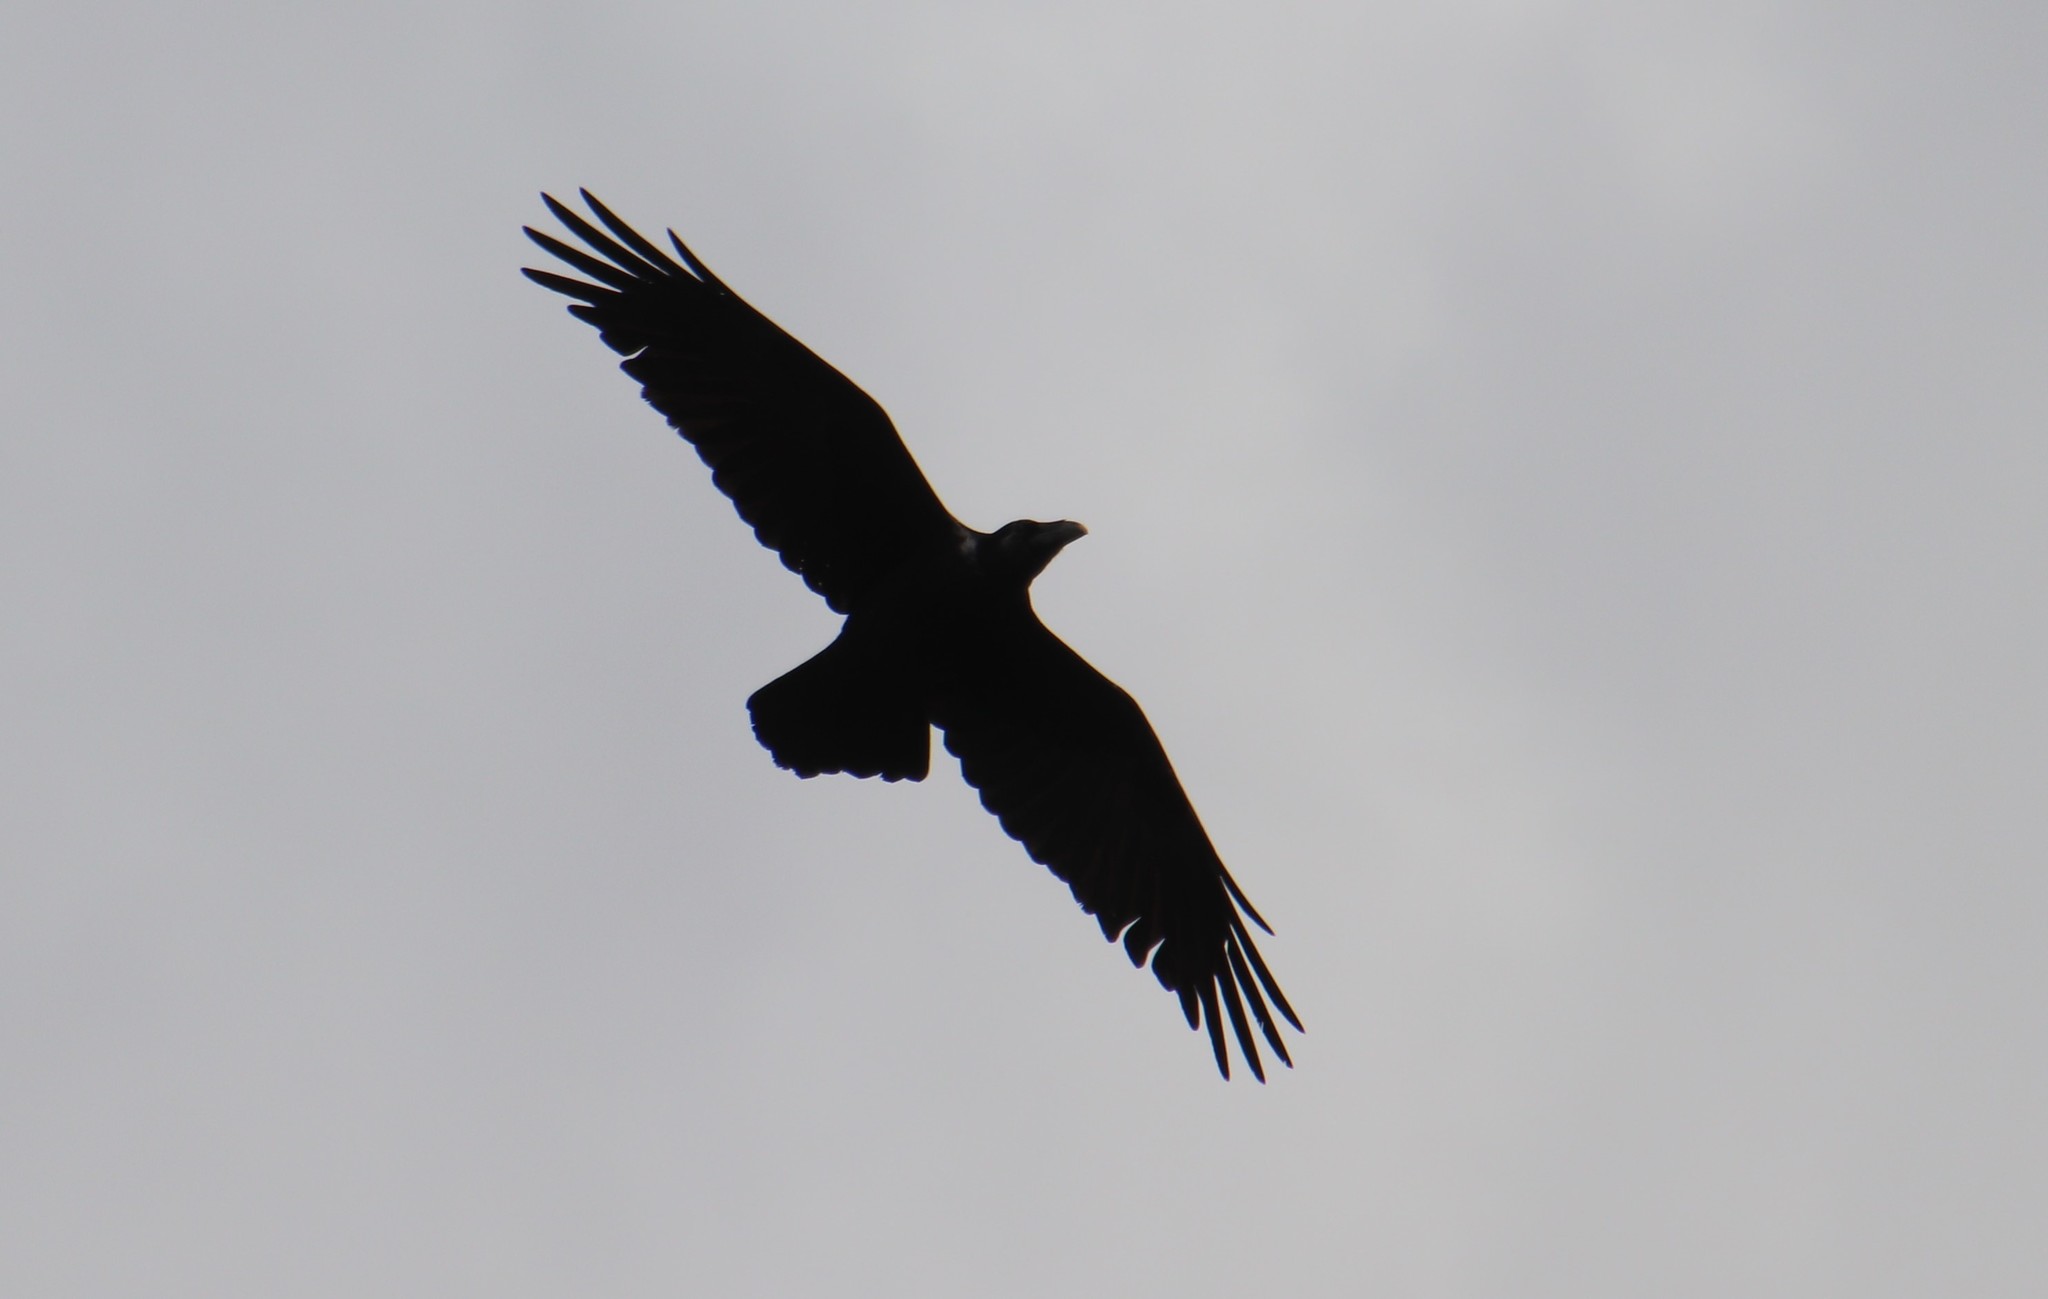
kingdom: Animalia
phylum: Chordata
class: Aves
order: Passeriformes
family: Corvidae
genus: Corvus
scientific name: Corvus corax
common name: Common raven
